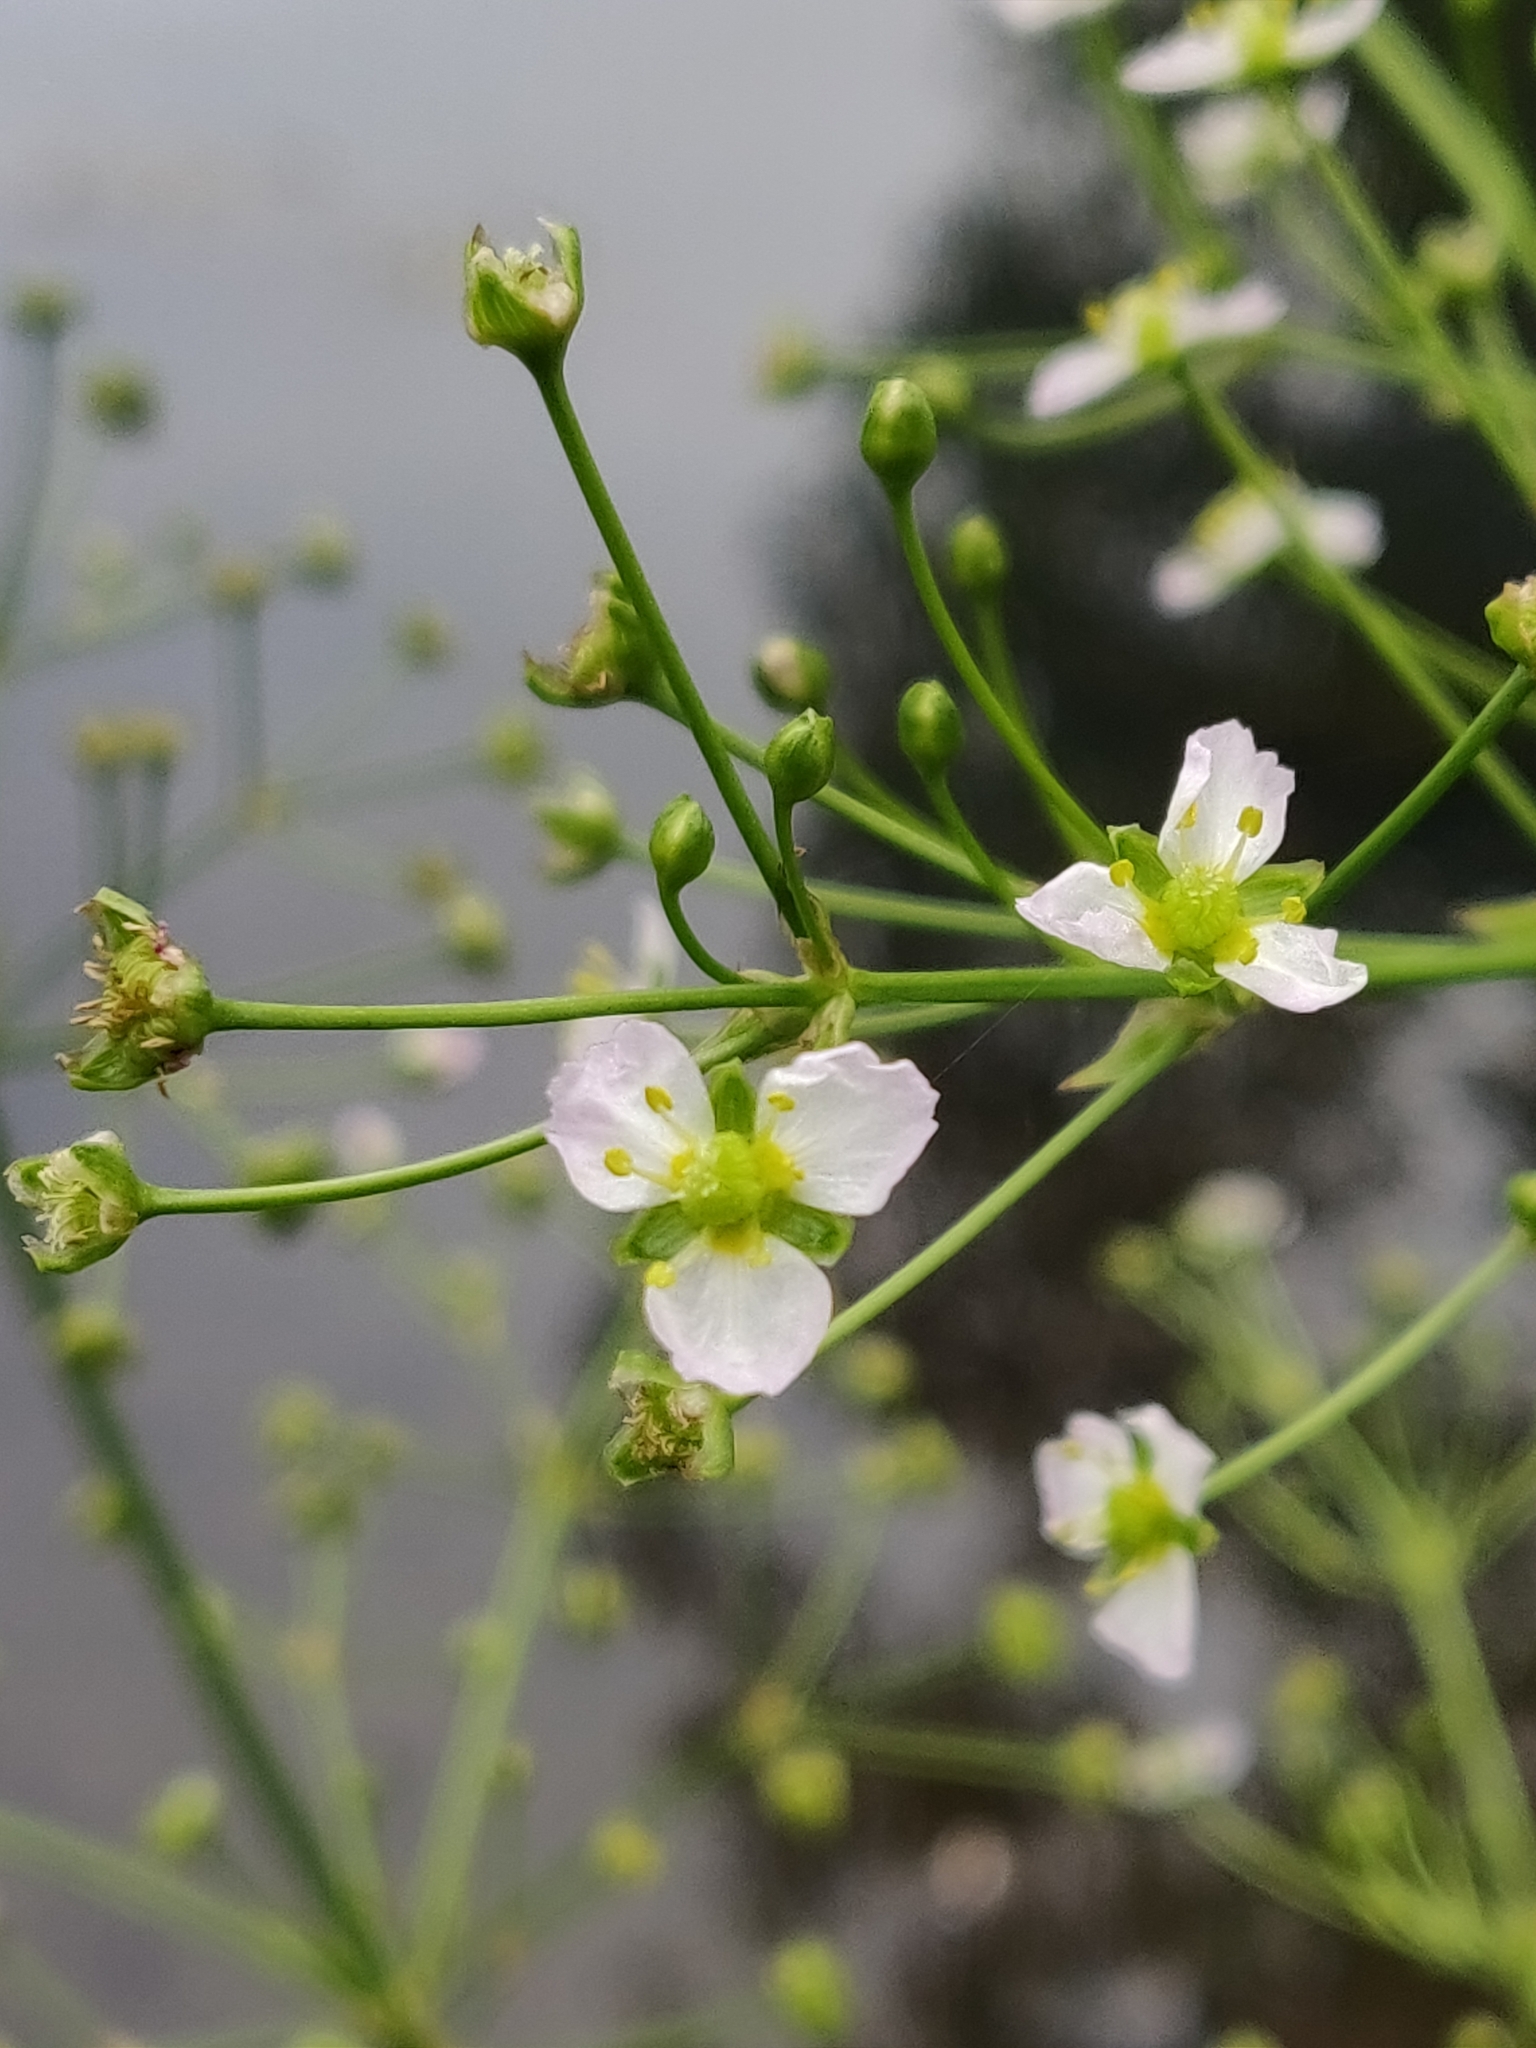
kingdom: Plantae
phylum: Tracheophyta
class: Liliopsida
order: Alismatales
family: Alismataceae
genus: Alisma
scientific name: Alisma plantago-aquatica
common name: Water-plantain
